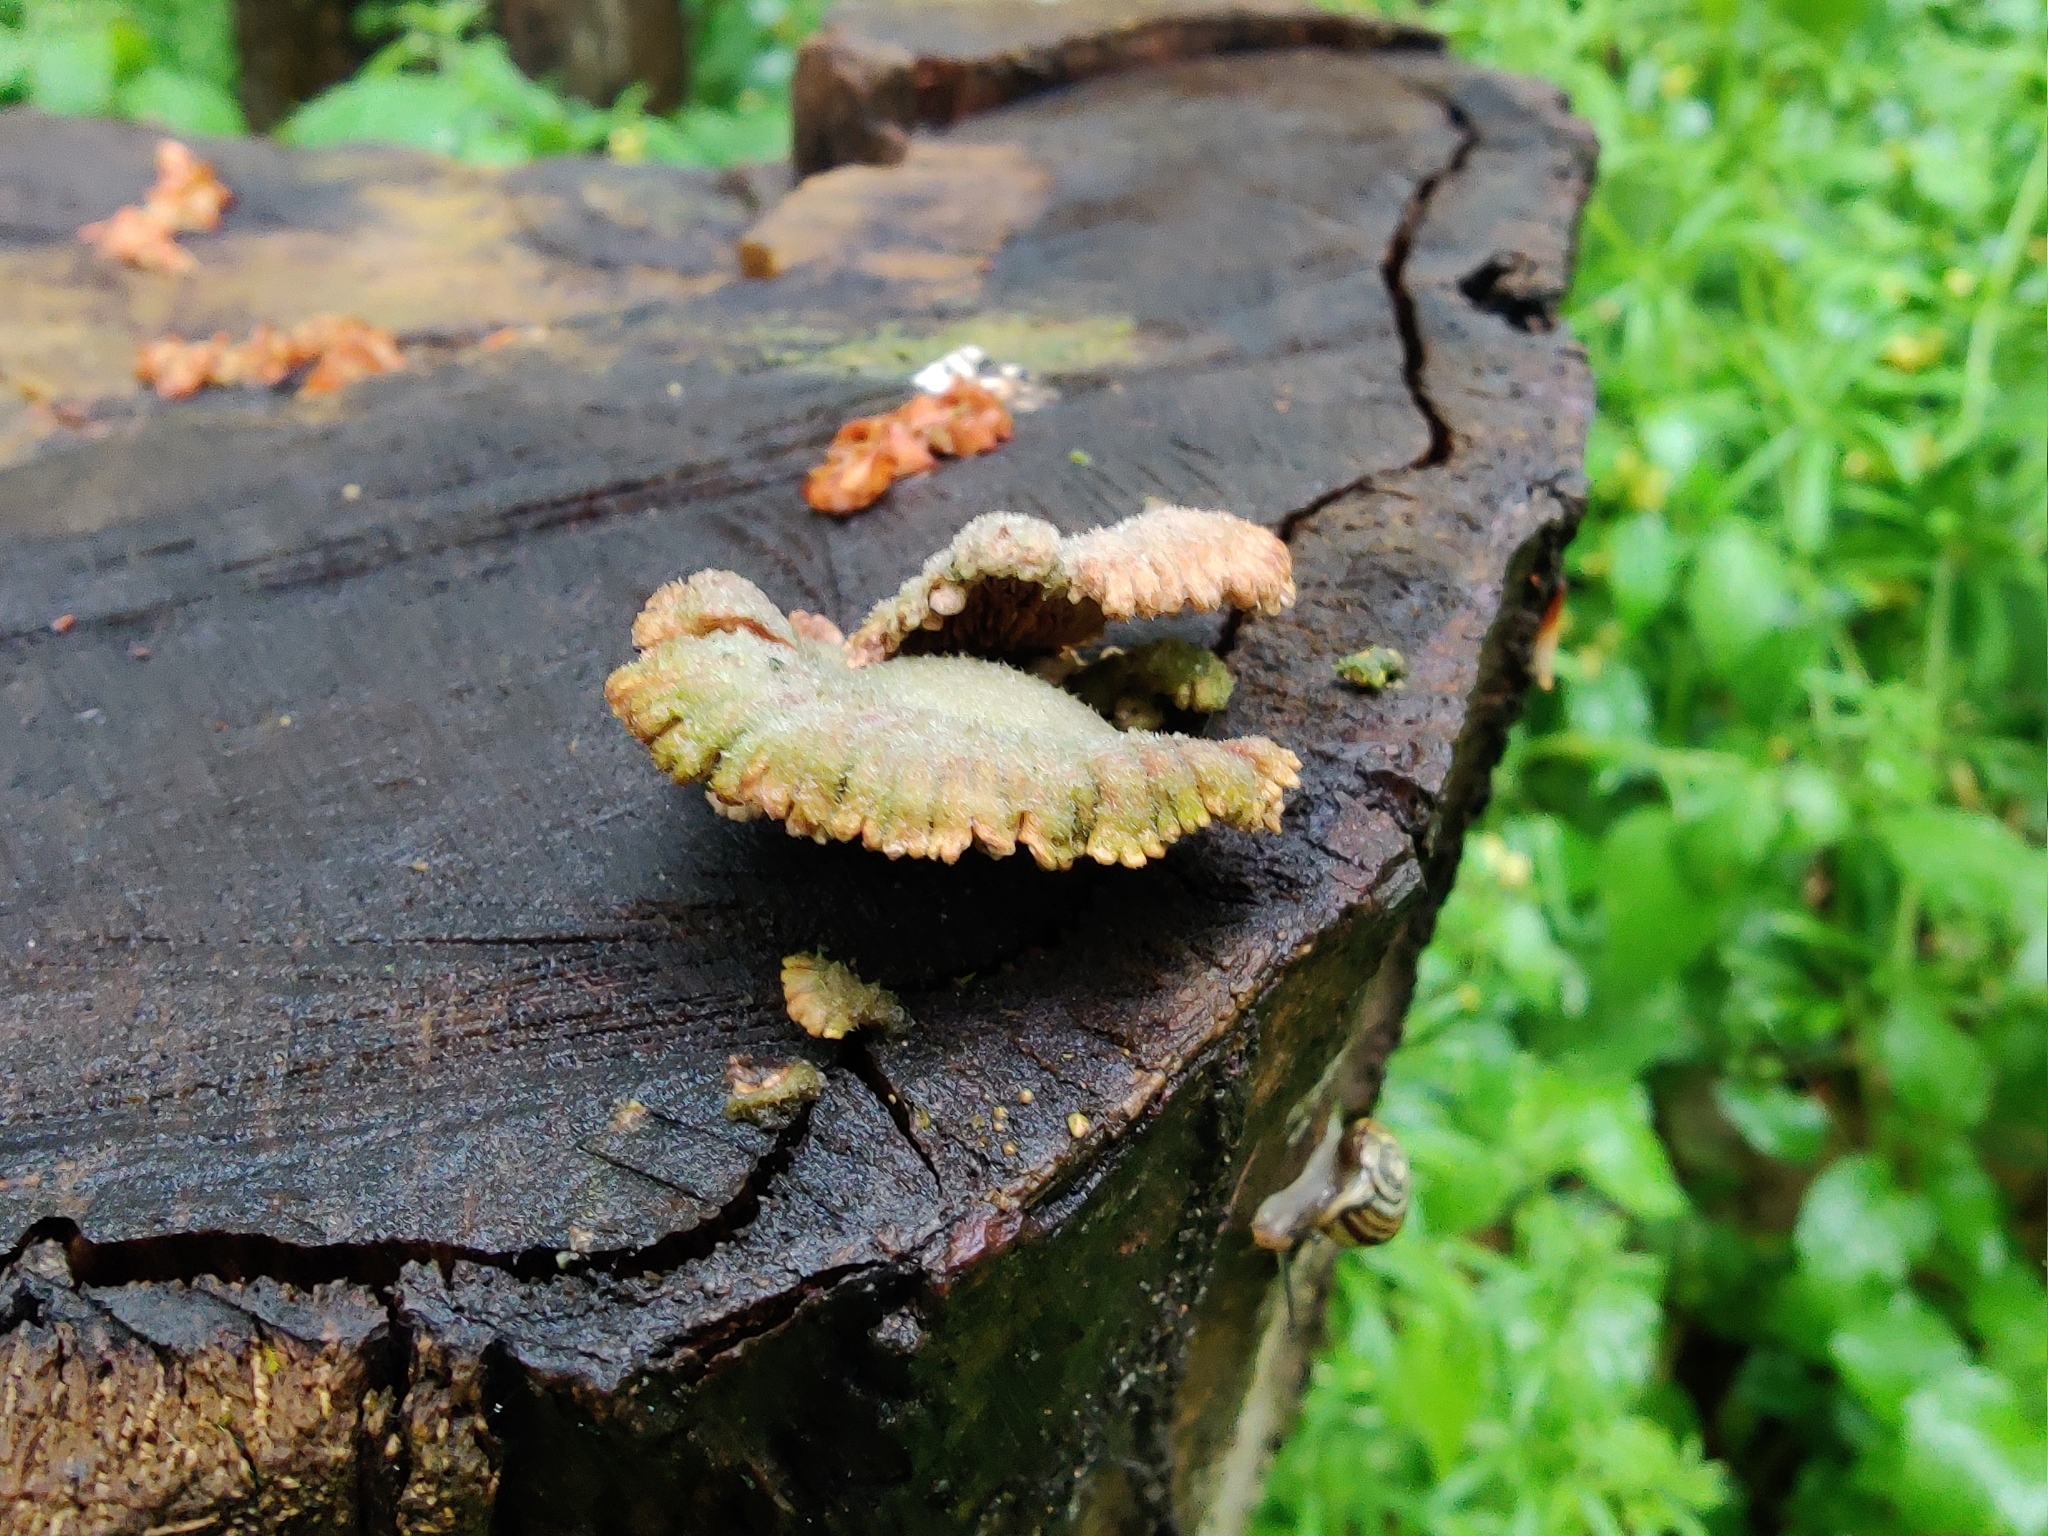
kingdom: Fungi
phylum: Basidiomycota
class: Agaricomycetes
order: Agaricales
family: Schizophyllaceae
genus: Schizophyllum
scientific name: Schizophyllum commune
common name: Common porecrust
